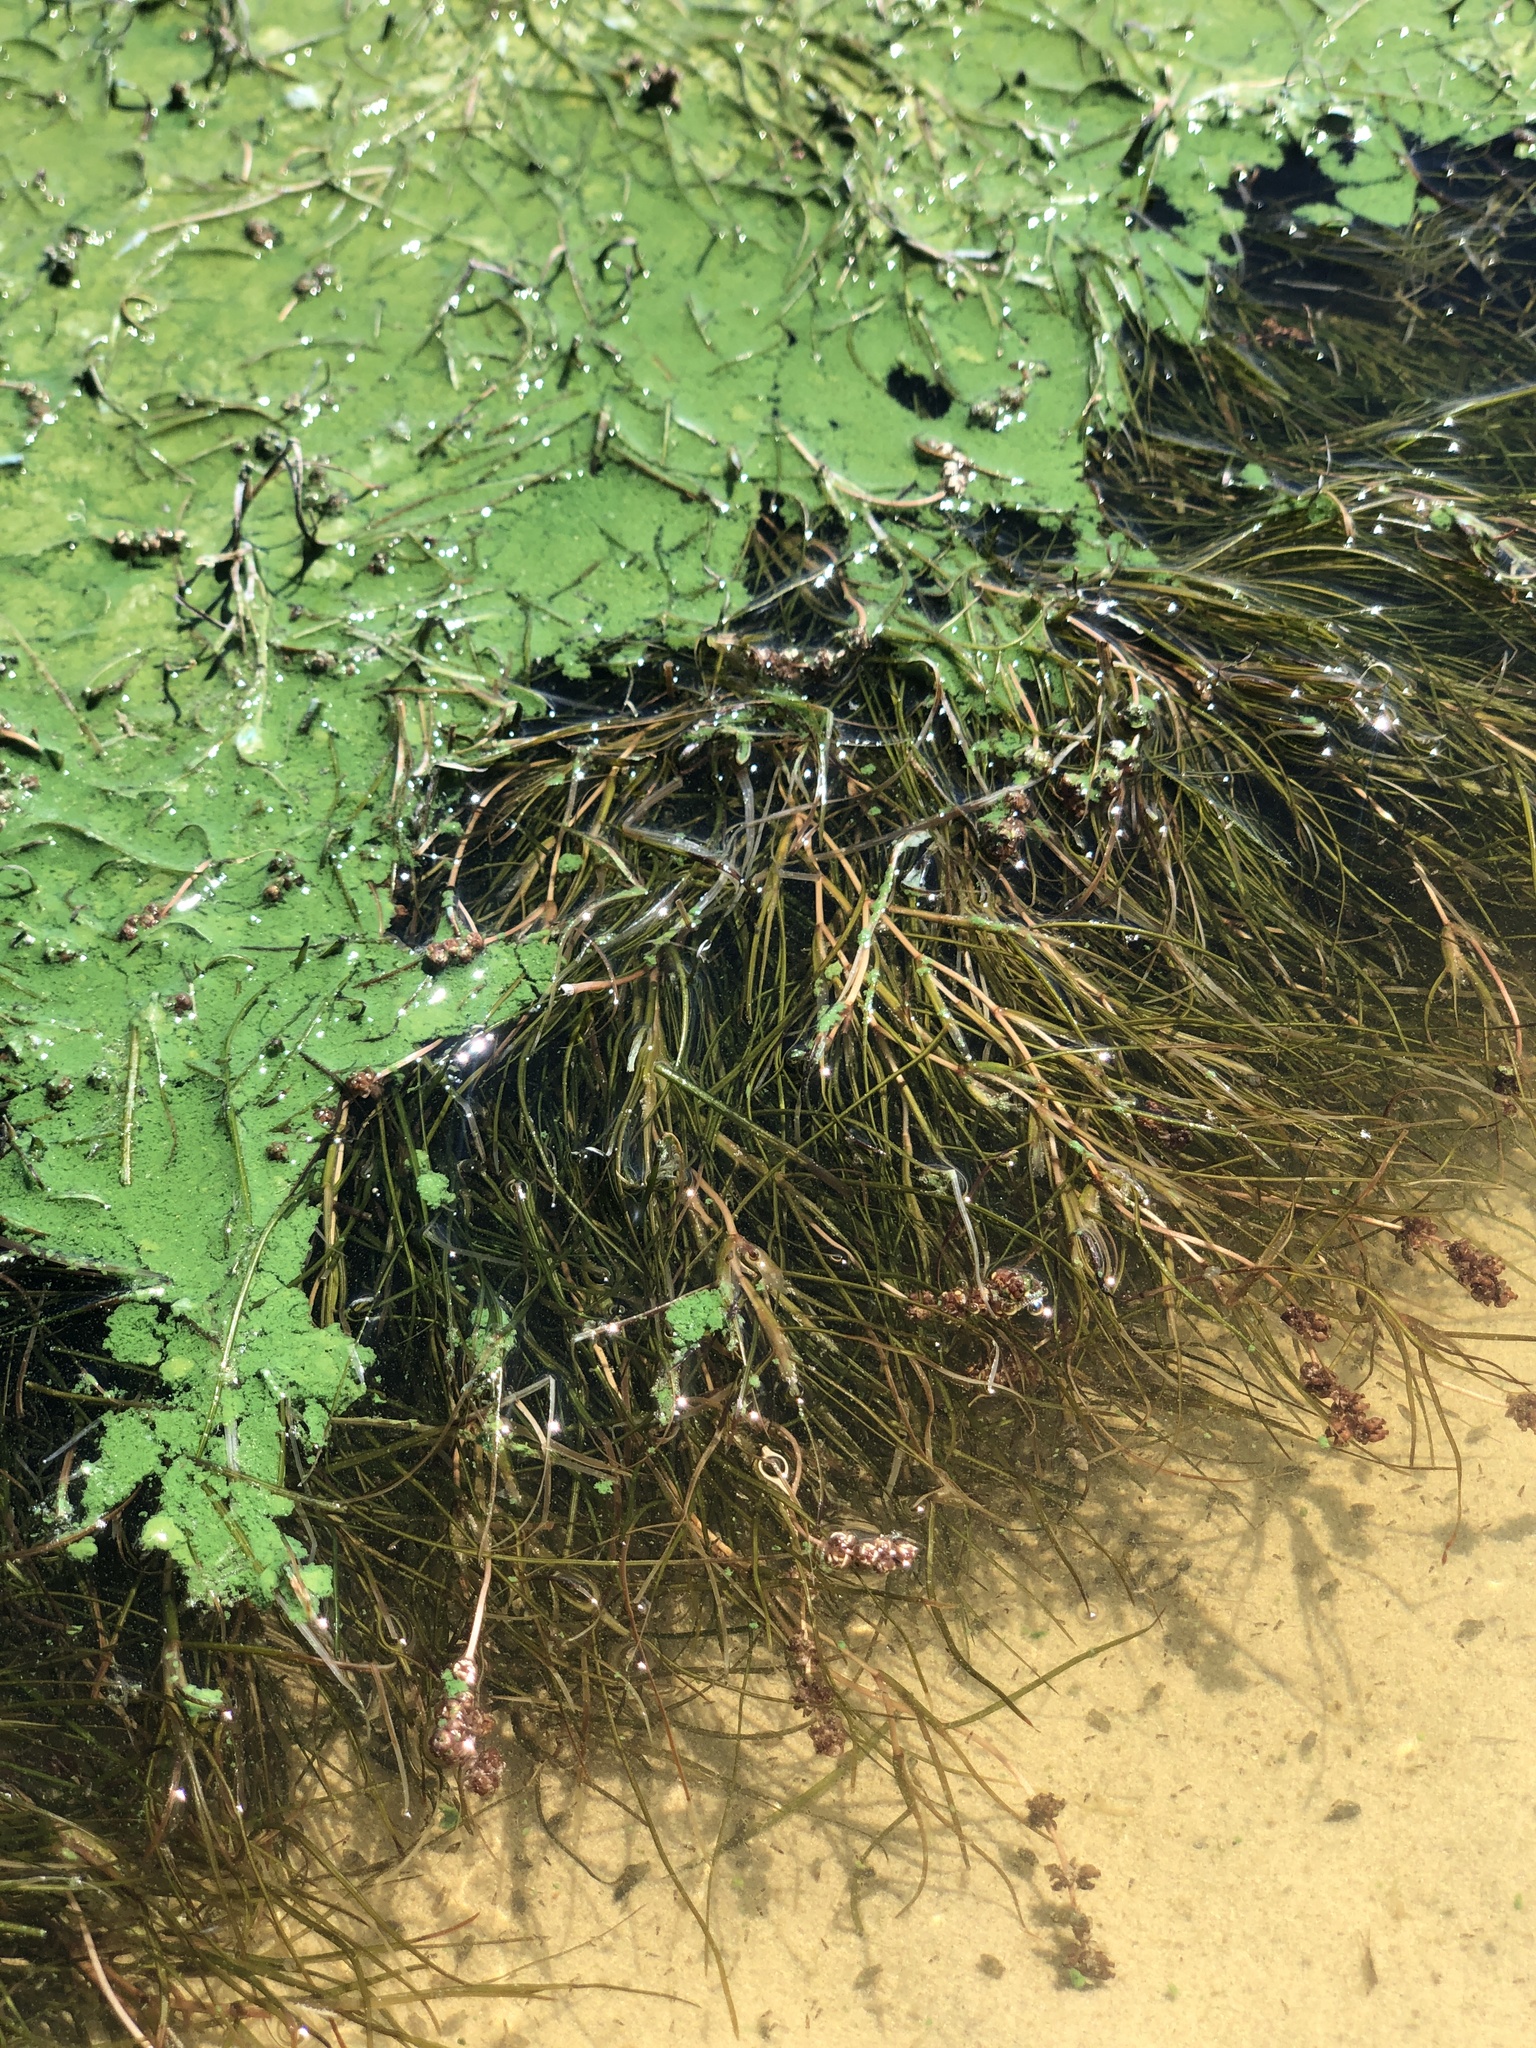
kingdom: Plantae
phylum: Tracheophyta
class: Liliopsida
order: Alismatales
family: Potamogetonaceae
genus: Stuckenia
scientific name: Stuckenia pectinata
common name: Sago pondweed
